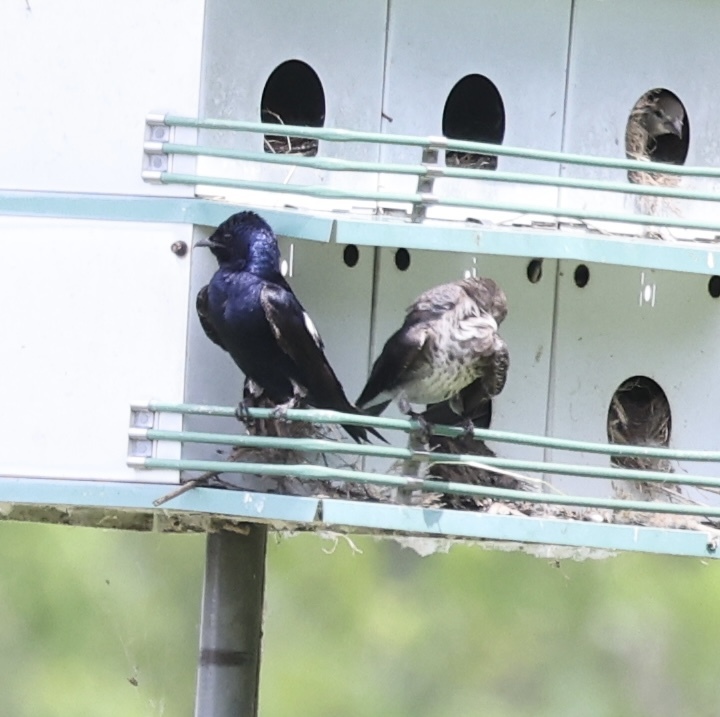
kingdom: Animalia
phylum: Chordata
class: Aves
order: Passeriformes
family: Hirundinidae
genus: Progne
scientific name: Progne subis
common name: Purple martin
